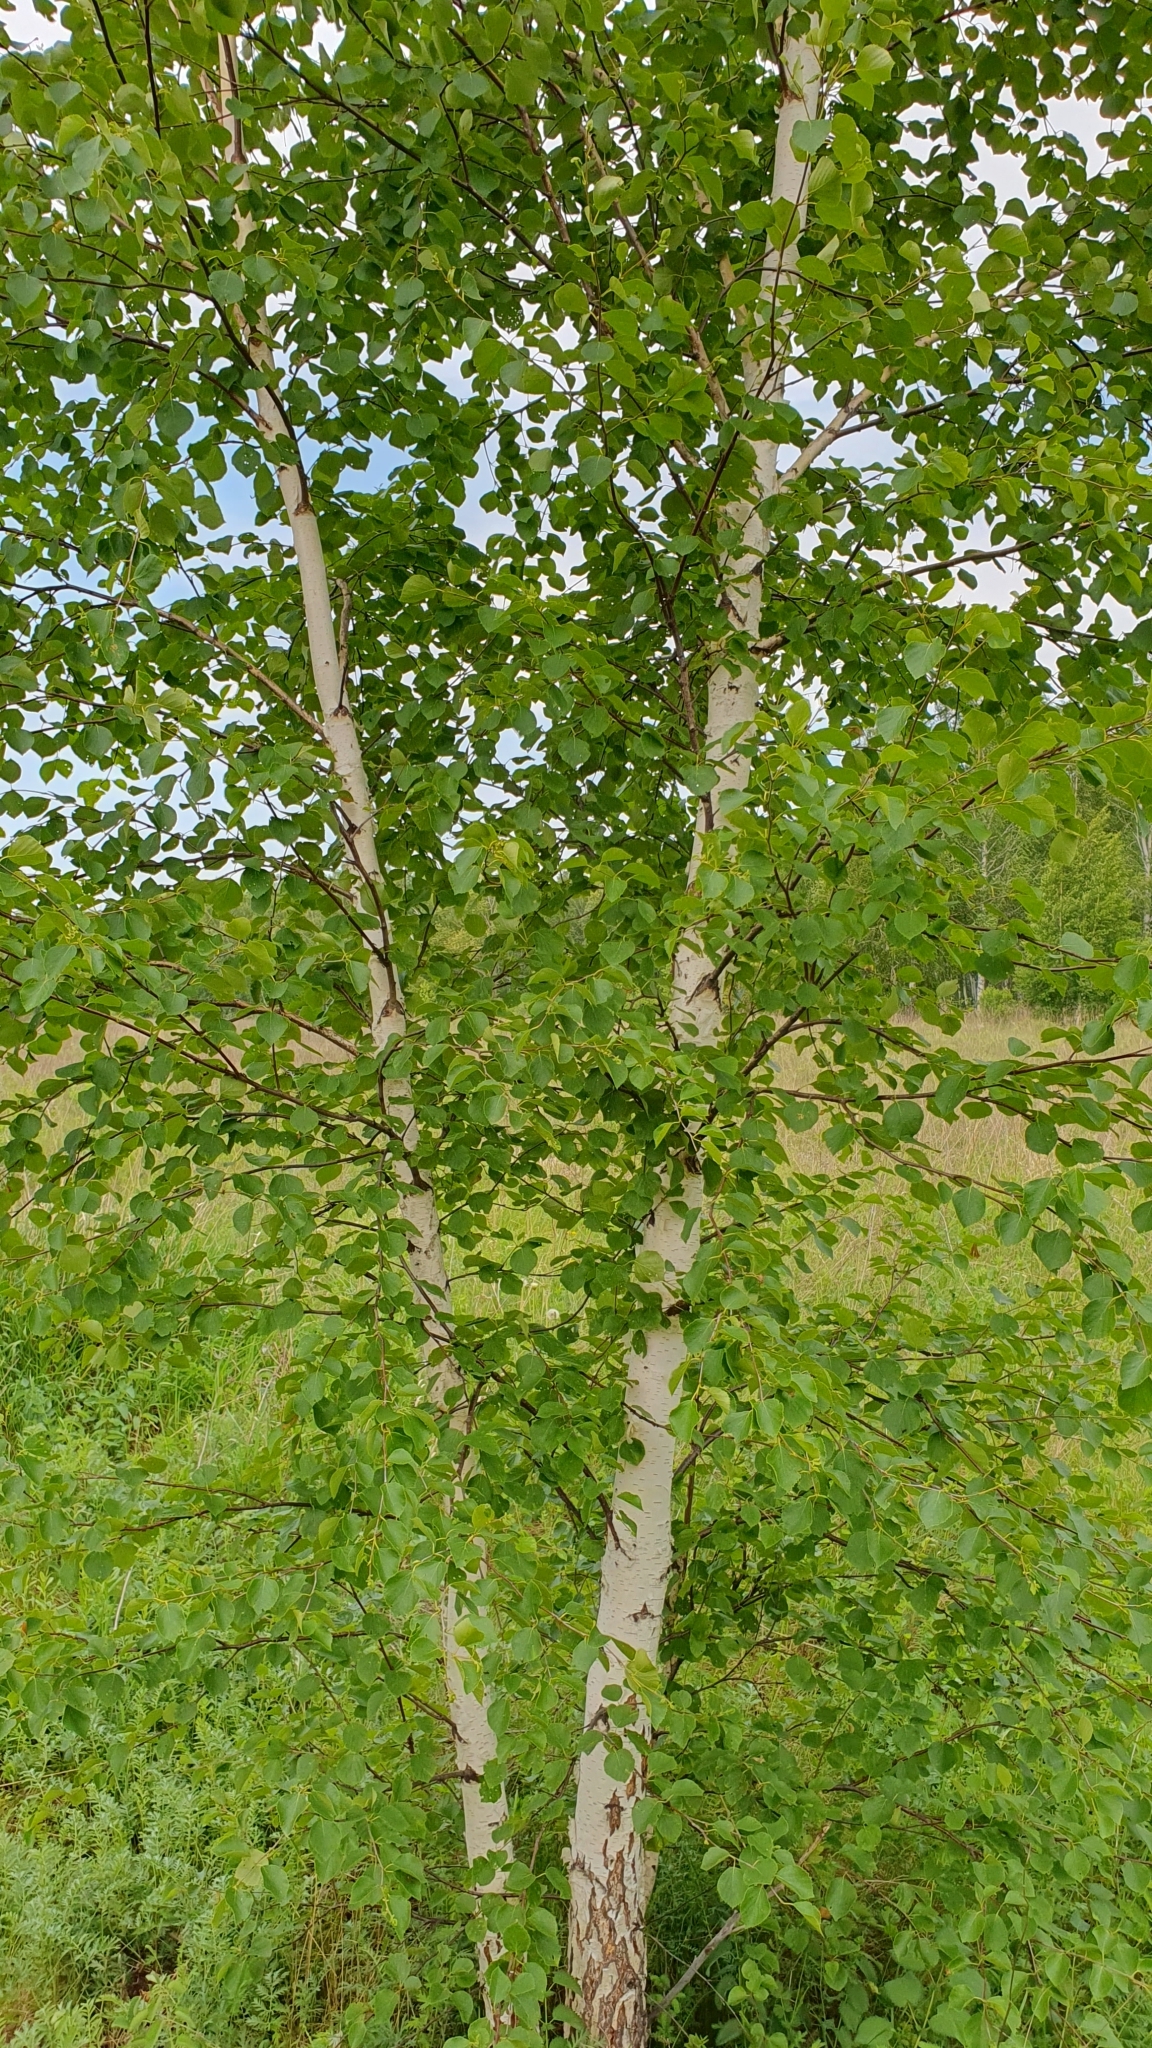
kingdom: Plantae
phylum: Tracheophyta
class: Magnoliopsida
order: Fagales
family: Betulaceae
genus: Betula
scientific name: Betula pendula
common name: Silver birch
